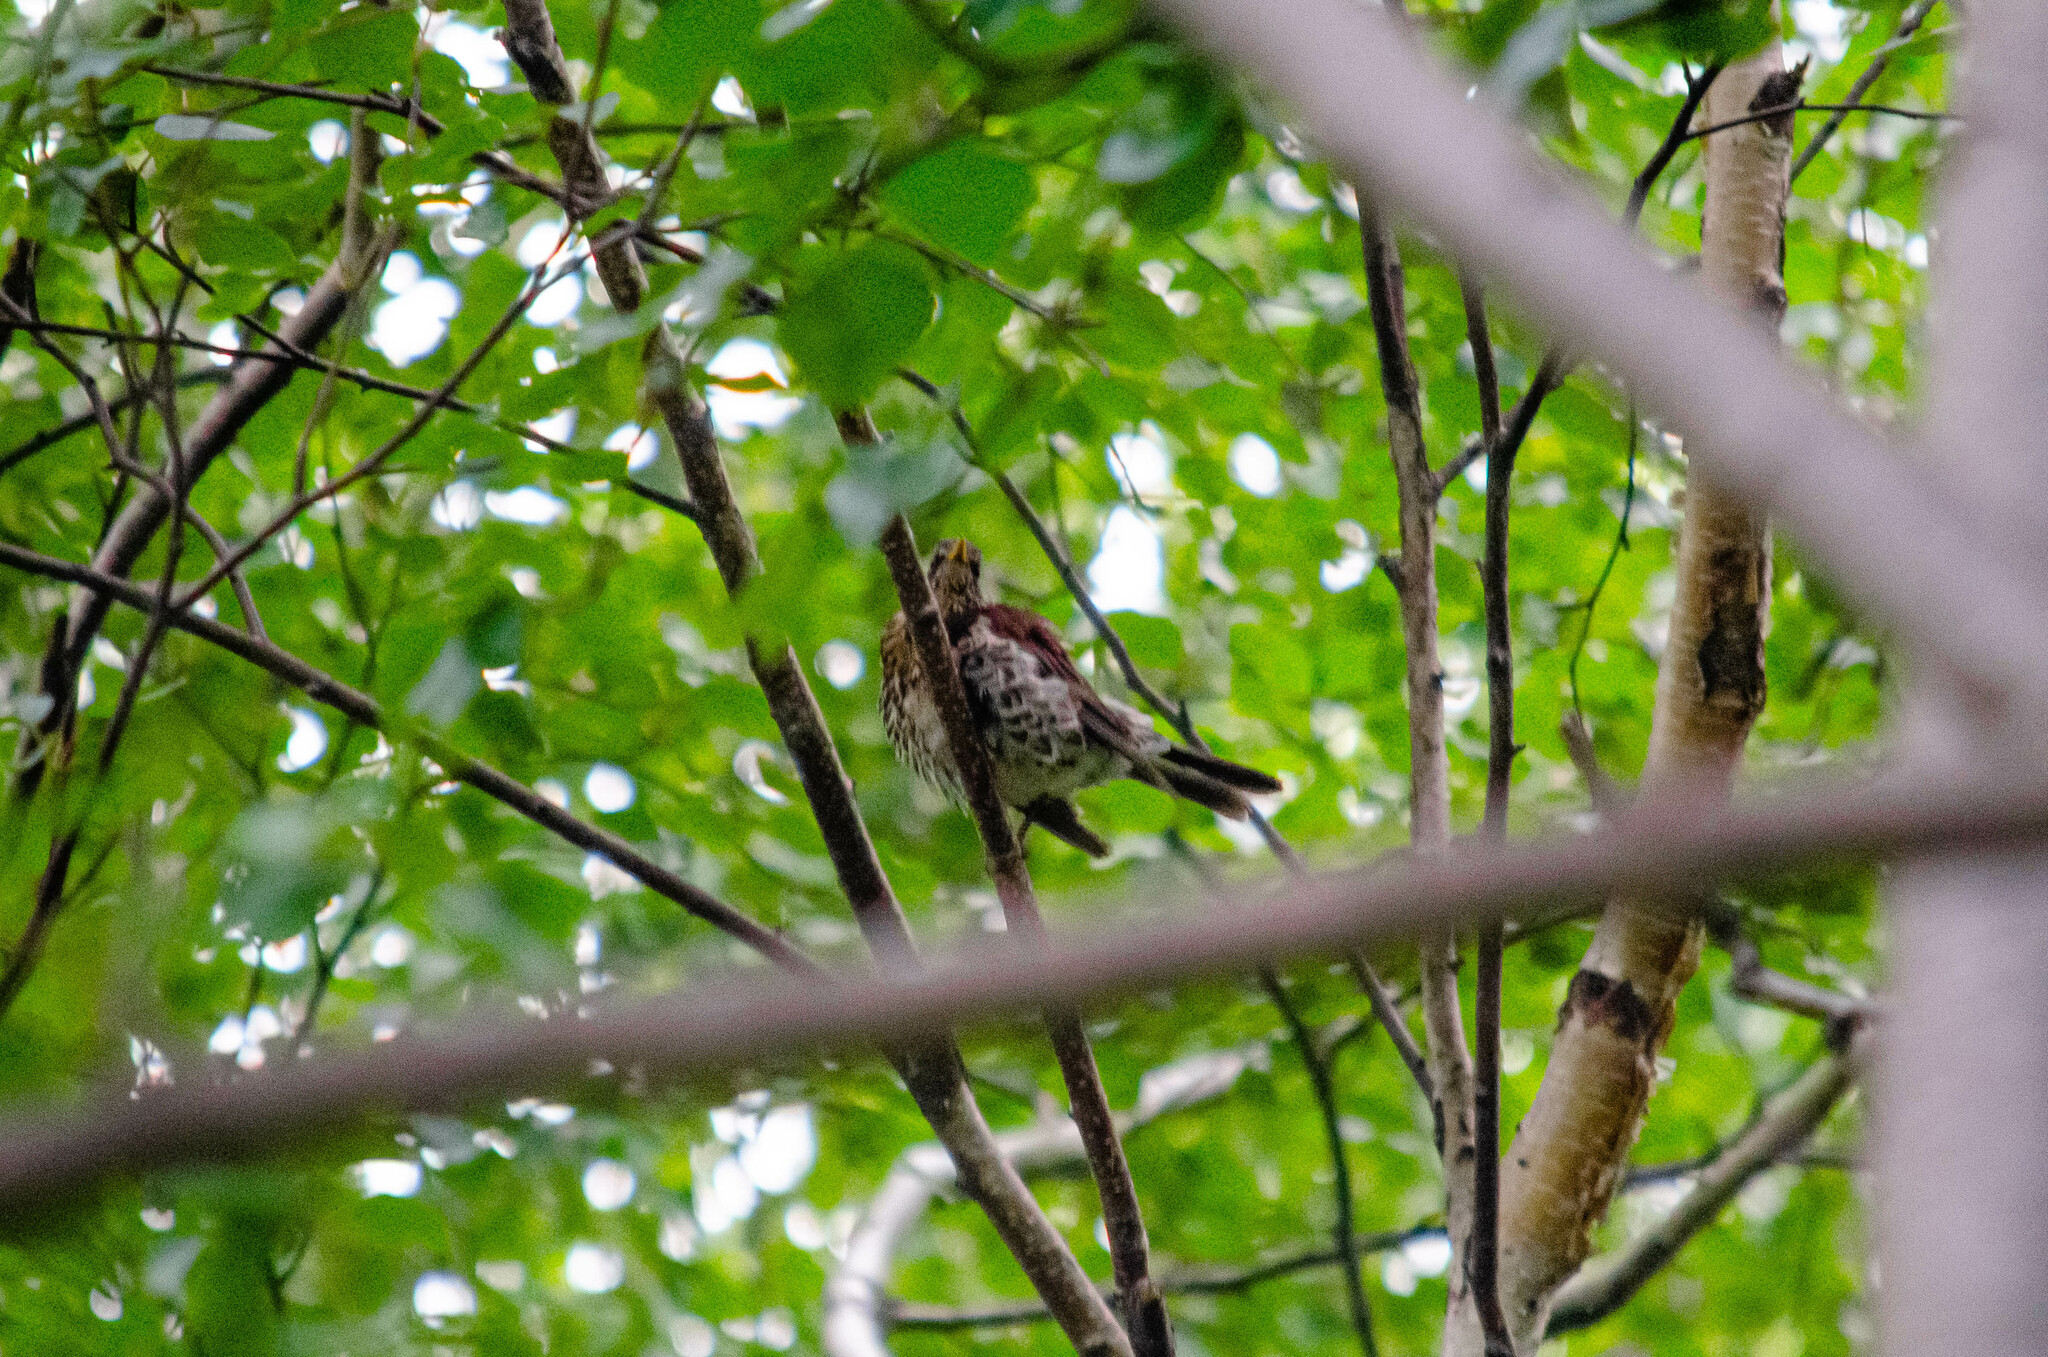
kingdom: Animalia
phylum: Chordata
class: Aves
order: Passeriformes
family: Turdidae
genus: Turdus
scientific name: Turdus pilaris
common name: Fieldfare
